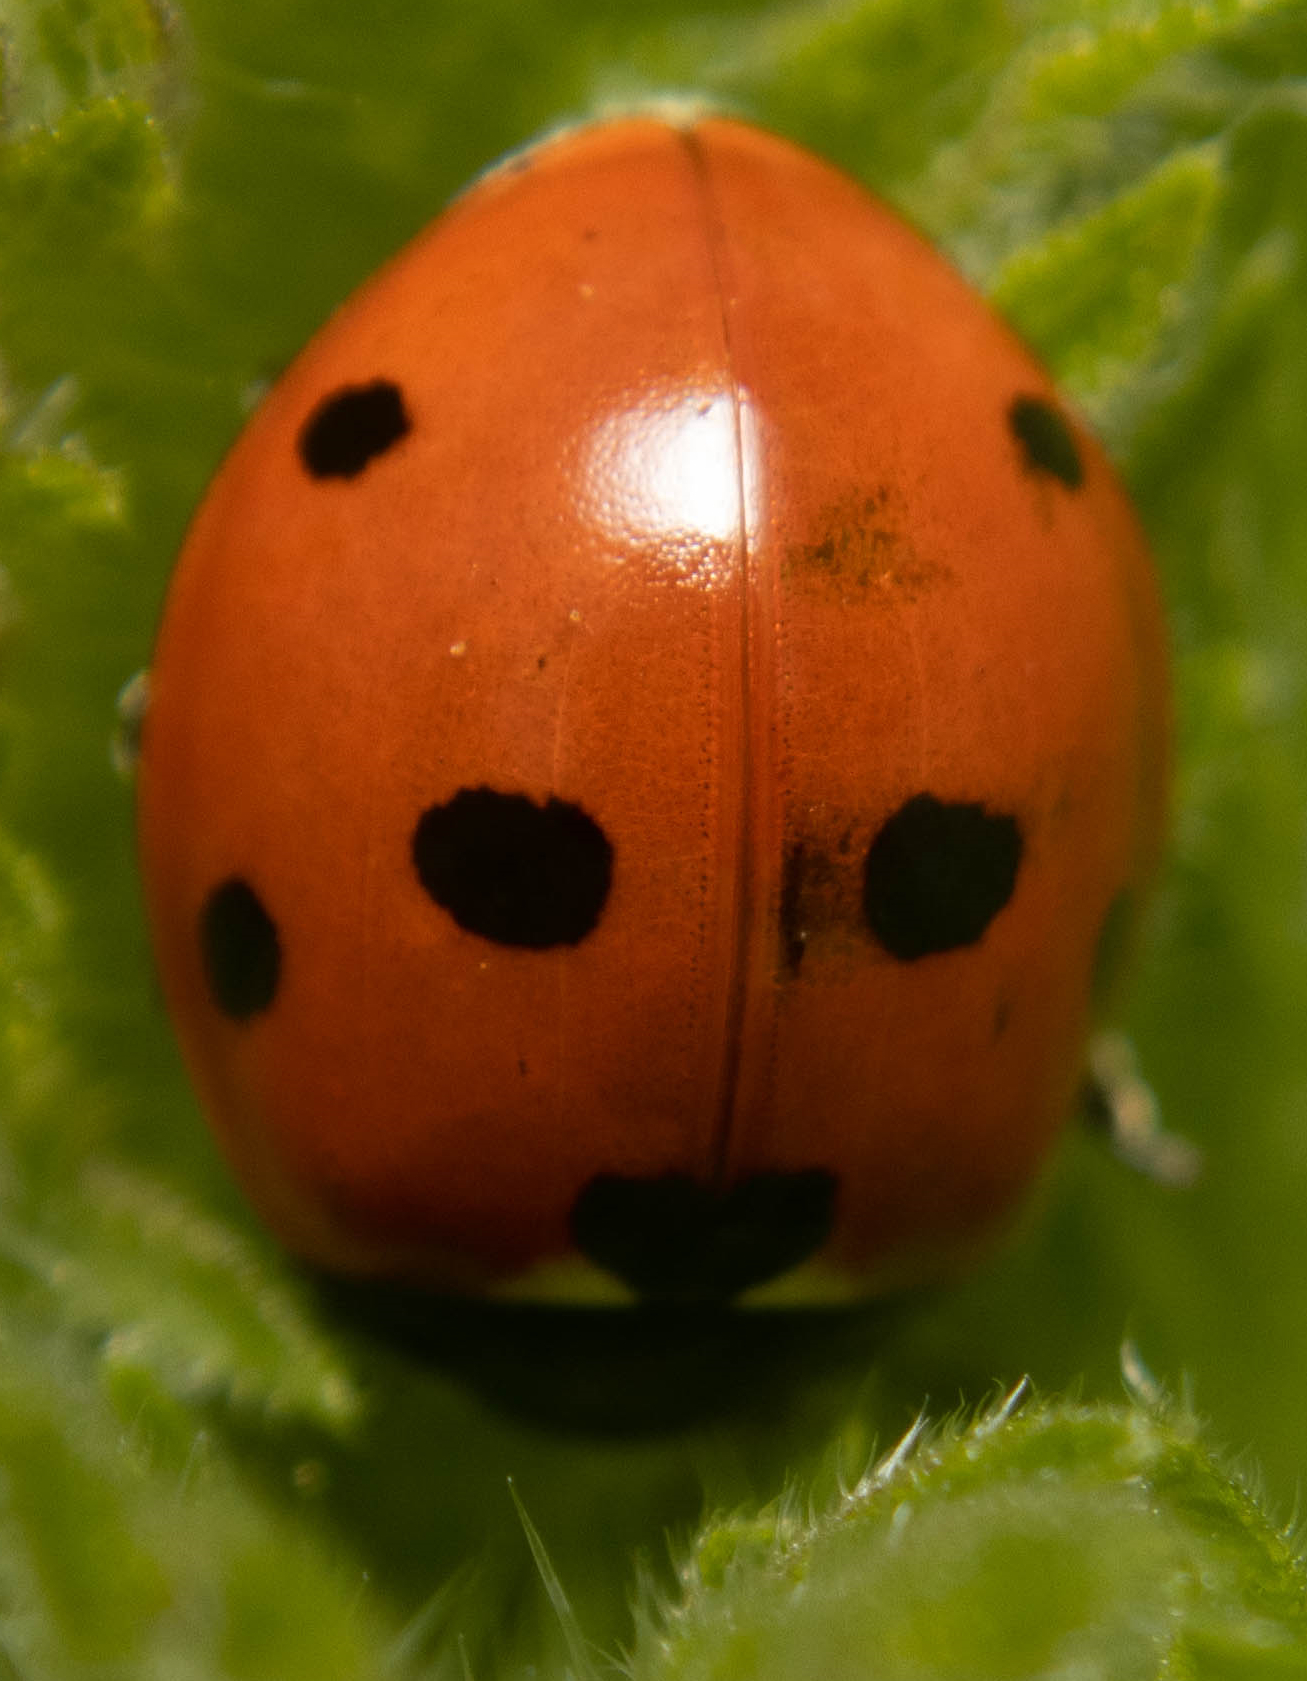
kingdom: Animalia
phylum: Arthropoda
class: Insecta
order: Coleoptera
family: Coccinellidae
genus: Coccinella
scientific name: Coccinella septempunctata
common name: Sevenspotted lady beetle
